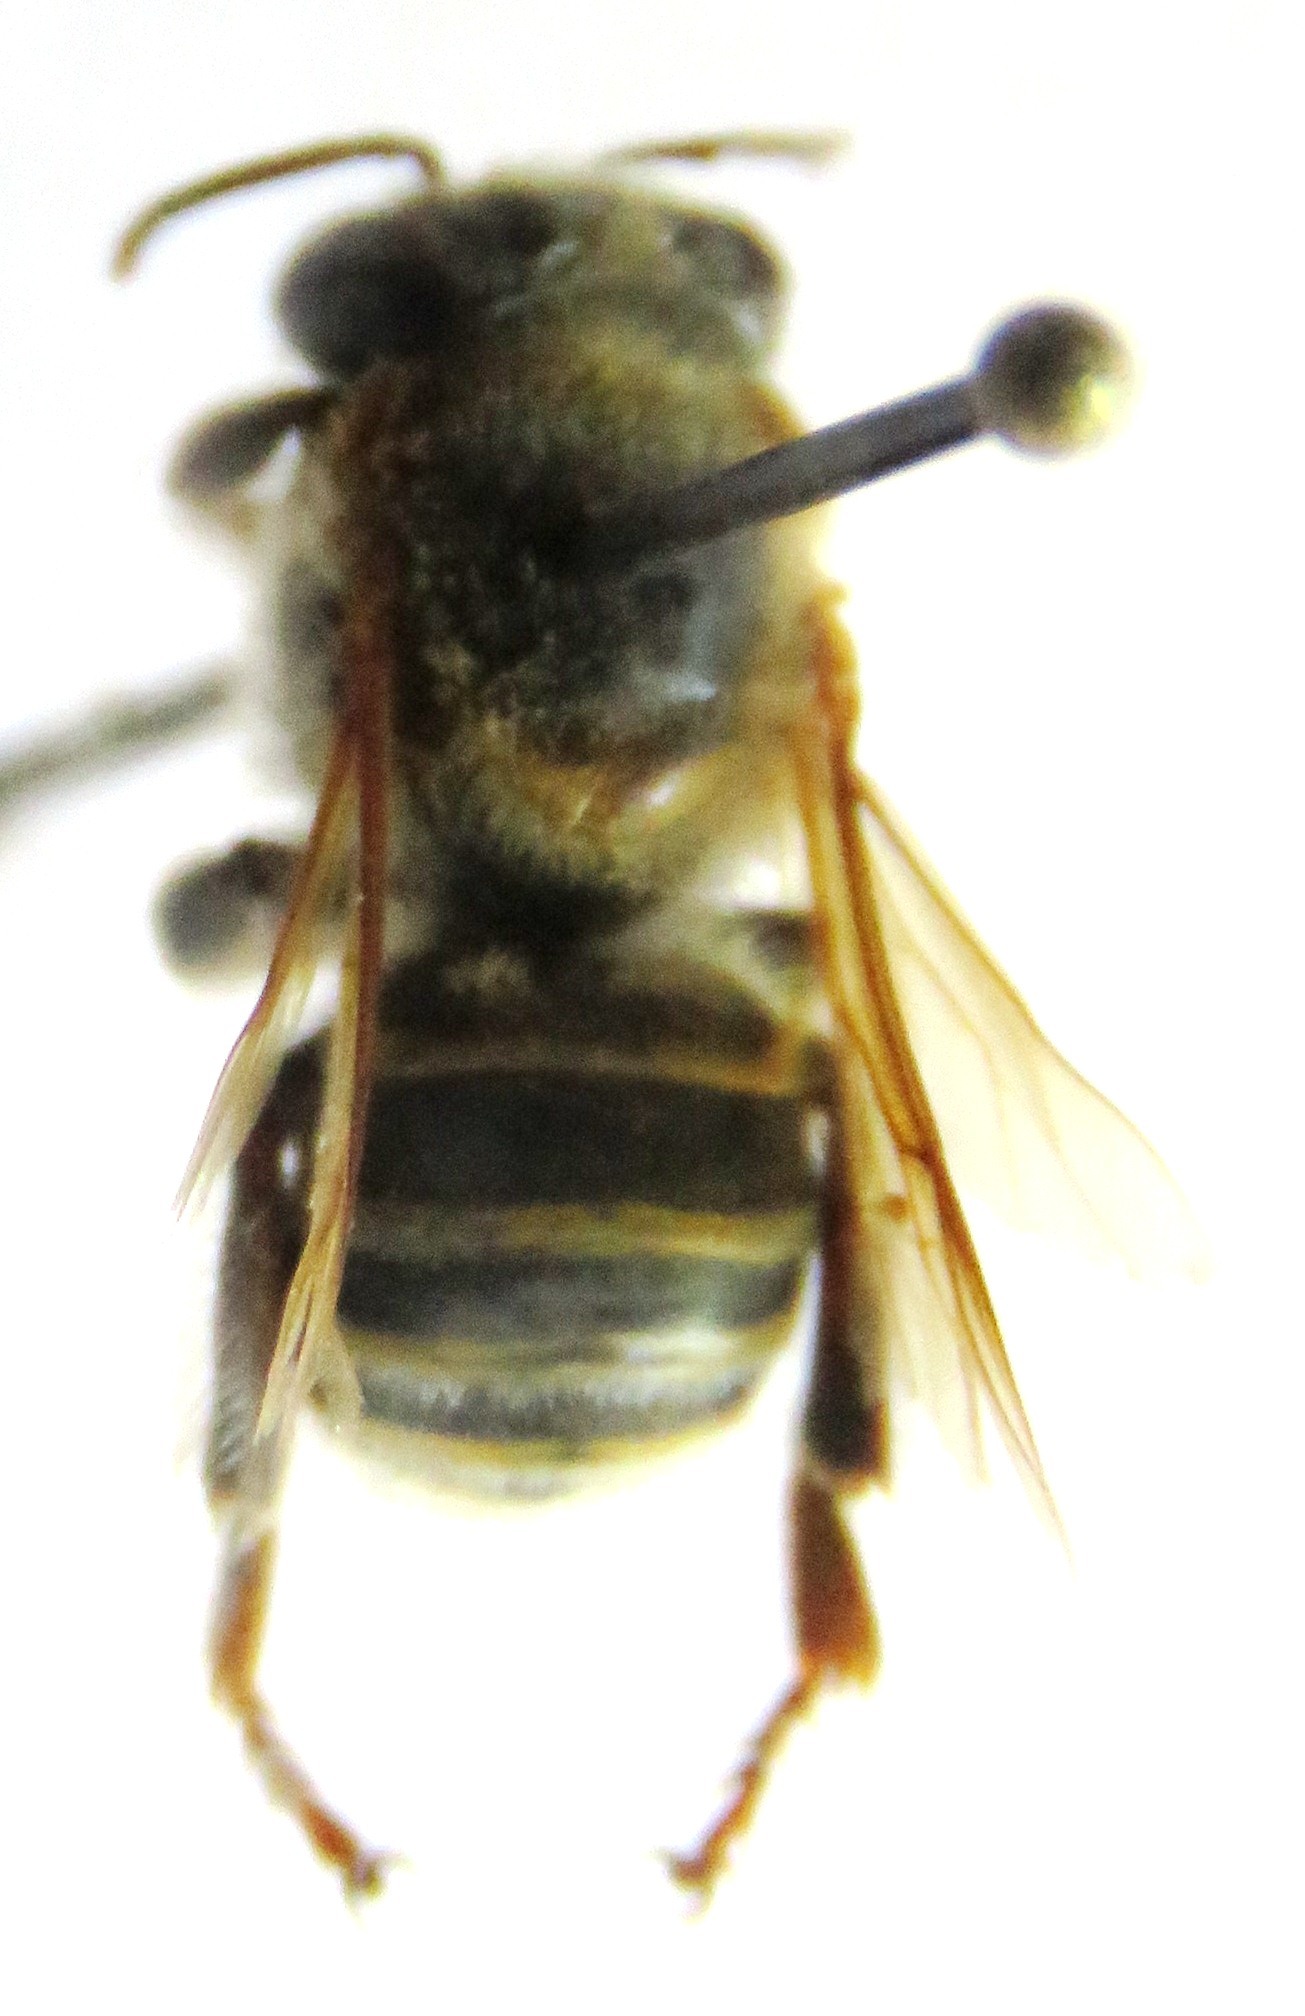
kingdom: Animalia
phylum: Arthropoda
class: Insecta
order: Hymenoptera
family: Apidae
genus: Melipona
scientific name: Melipona beecheii
